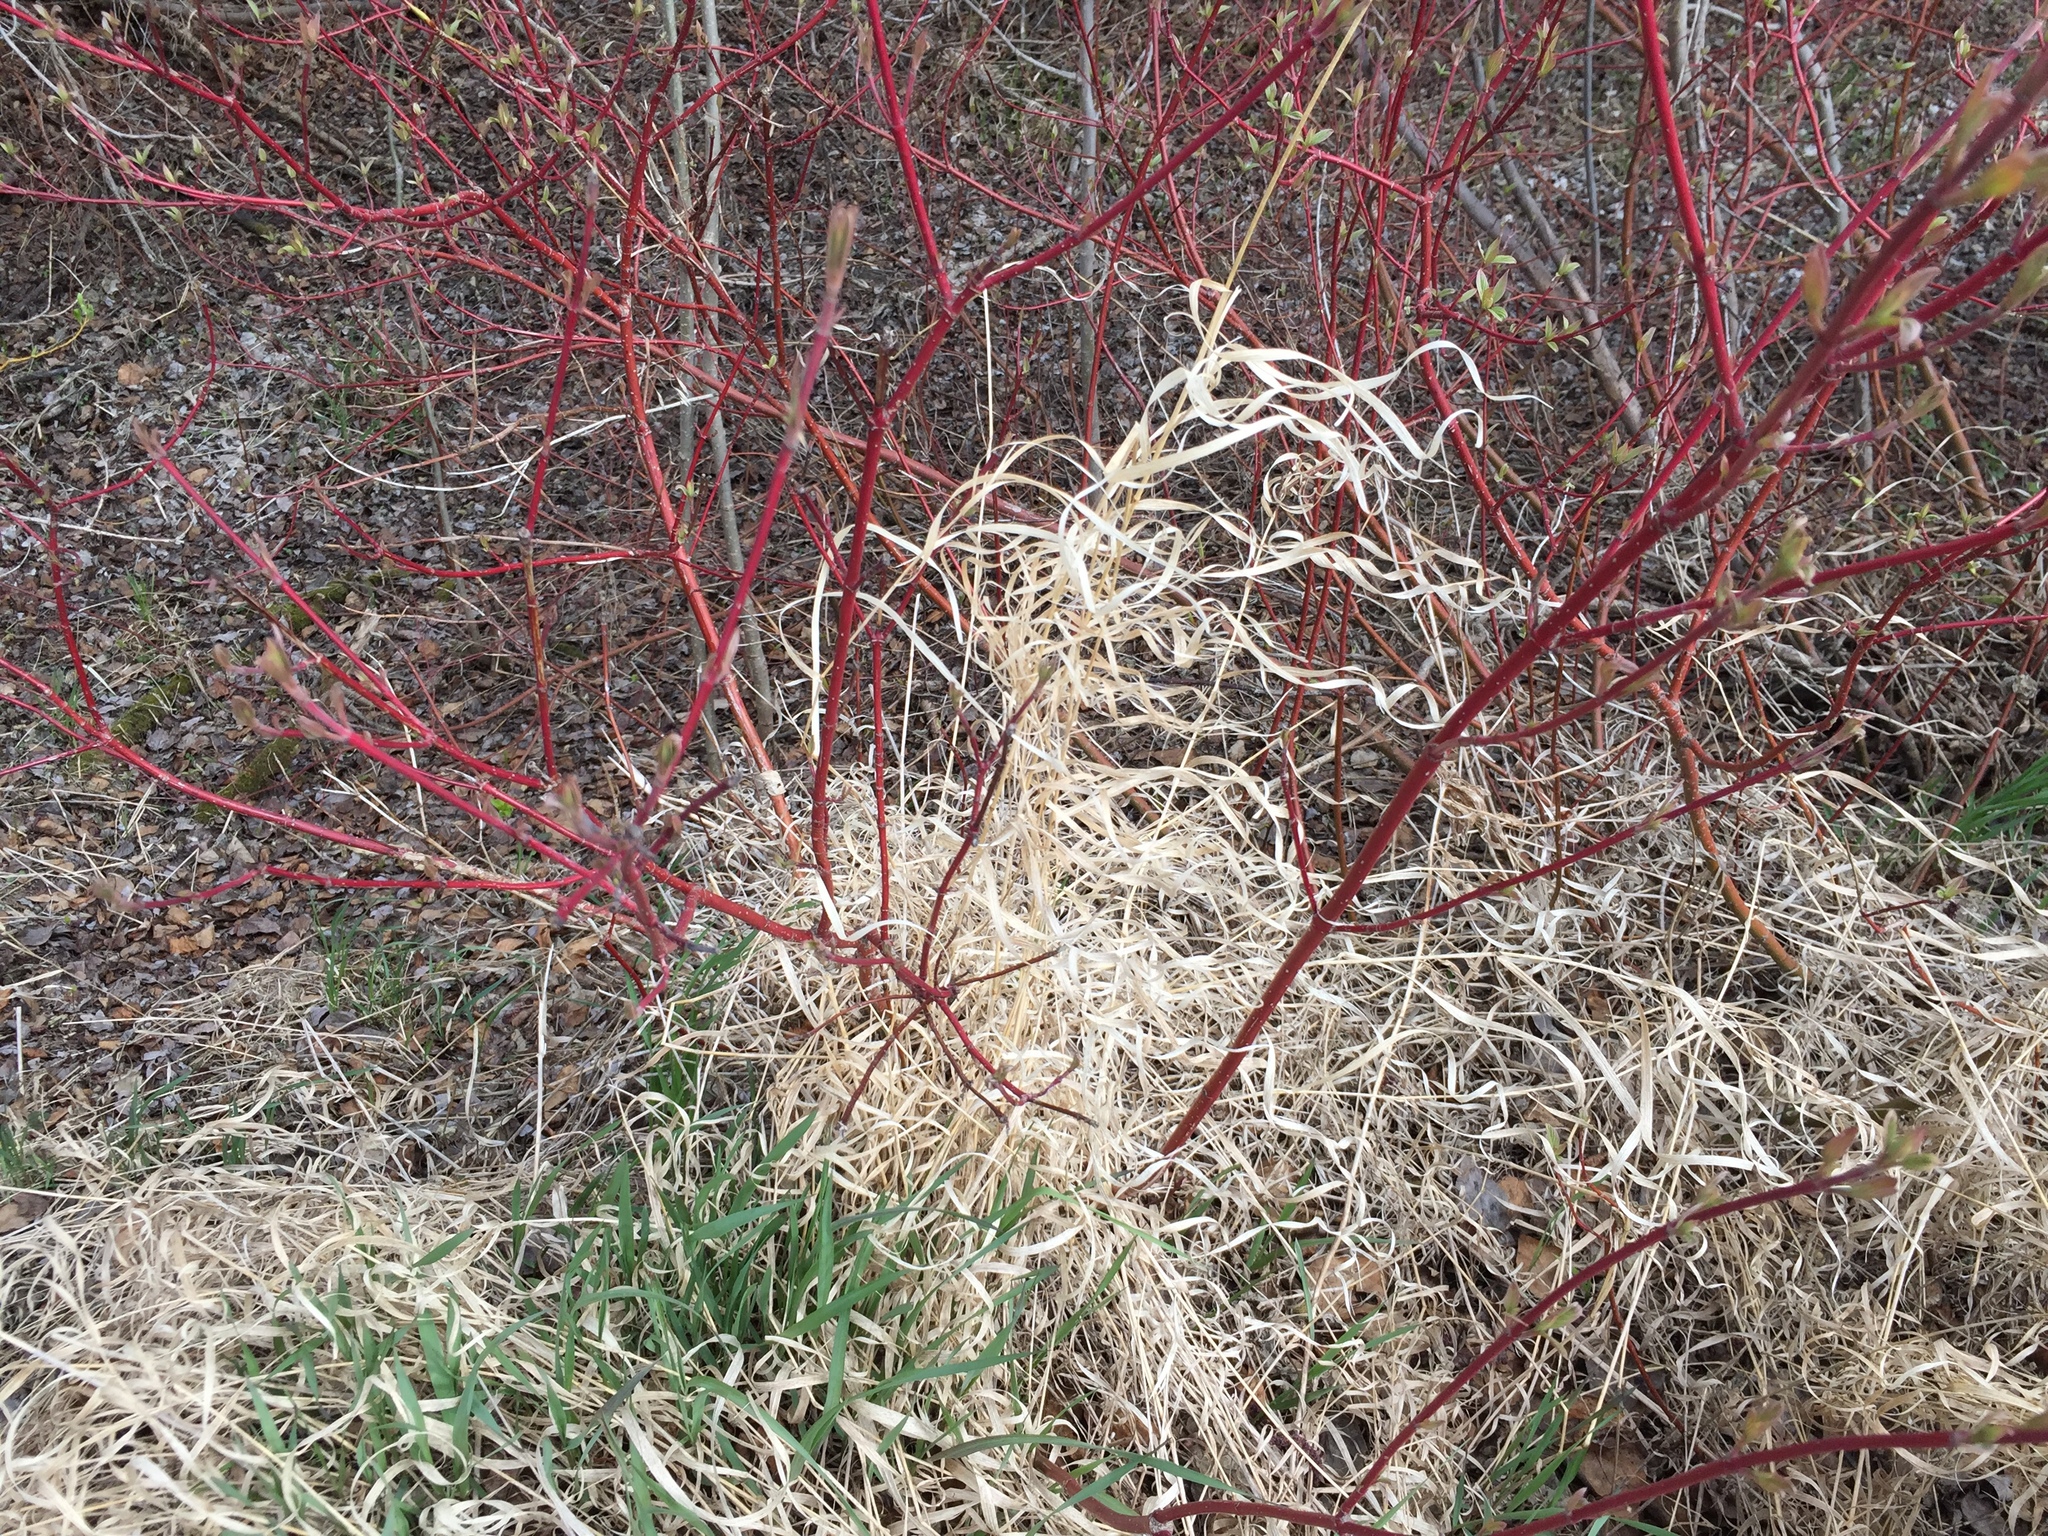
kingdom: Plantae
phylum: Tracheophyta
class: Magnoliopsida
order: Cornales
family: Cornaceae
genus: Cornus
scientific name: Cornus sericea
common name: Red-osier dogwood
